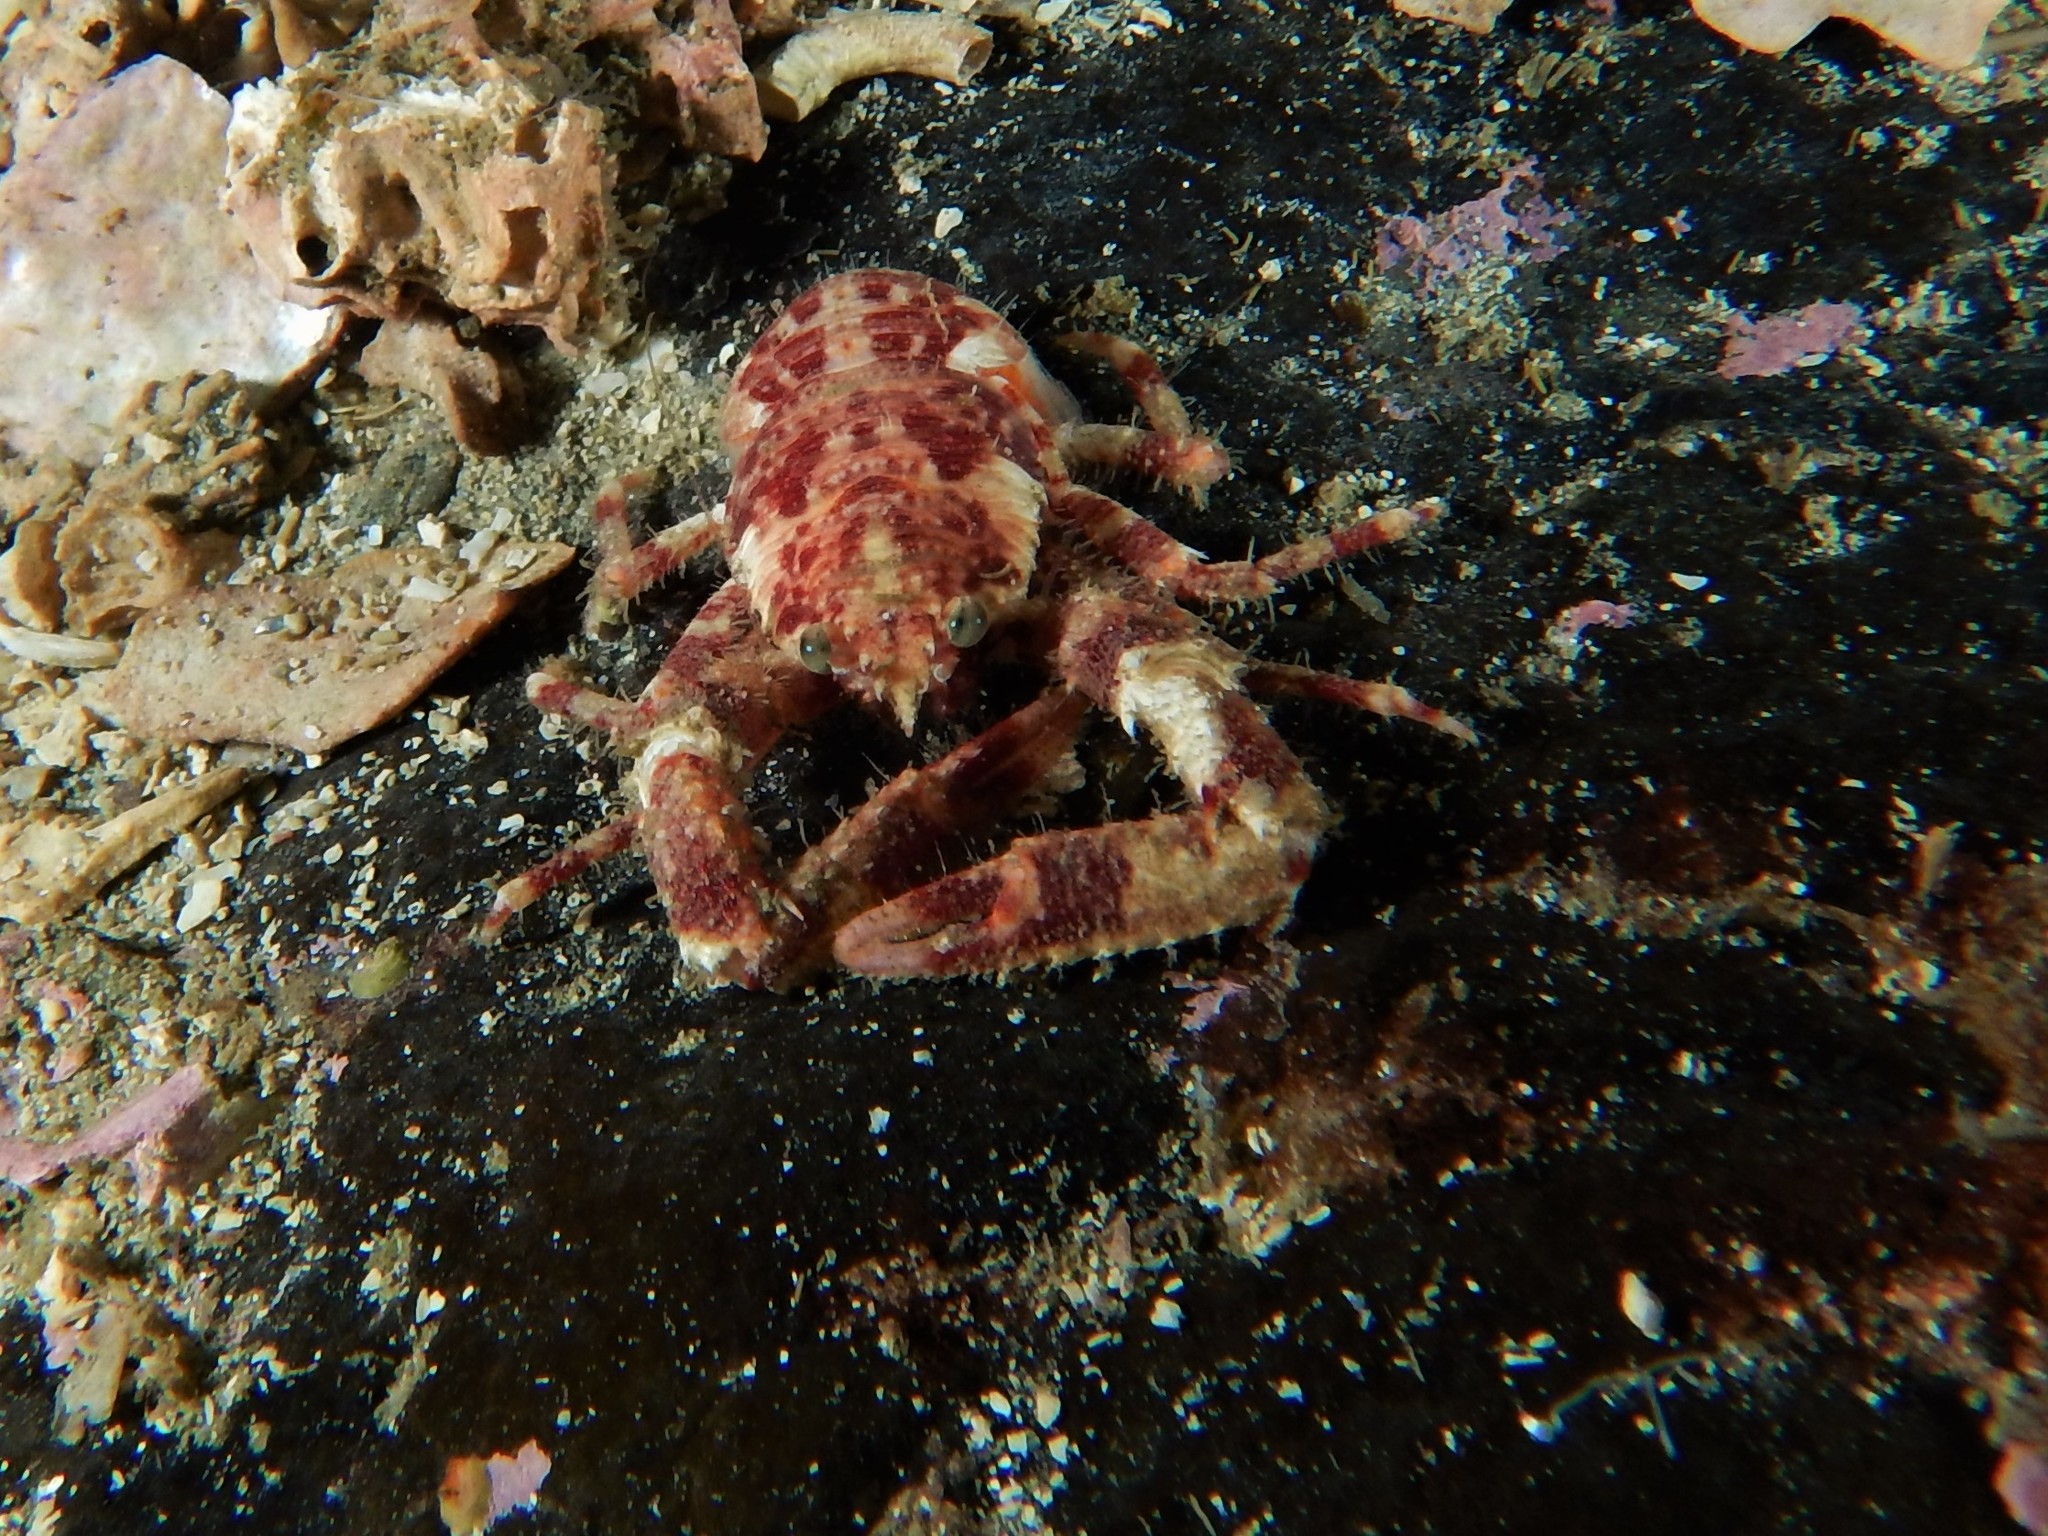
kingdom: Animalia
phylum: Arthropoda
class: Malacostraca
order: Decapoda
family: Galatheidae
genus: Galathea
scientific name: Galathea dispersa
